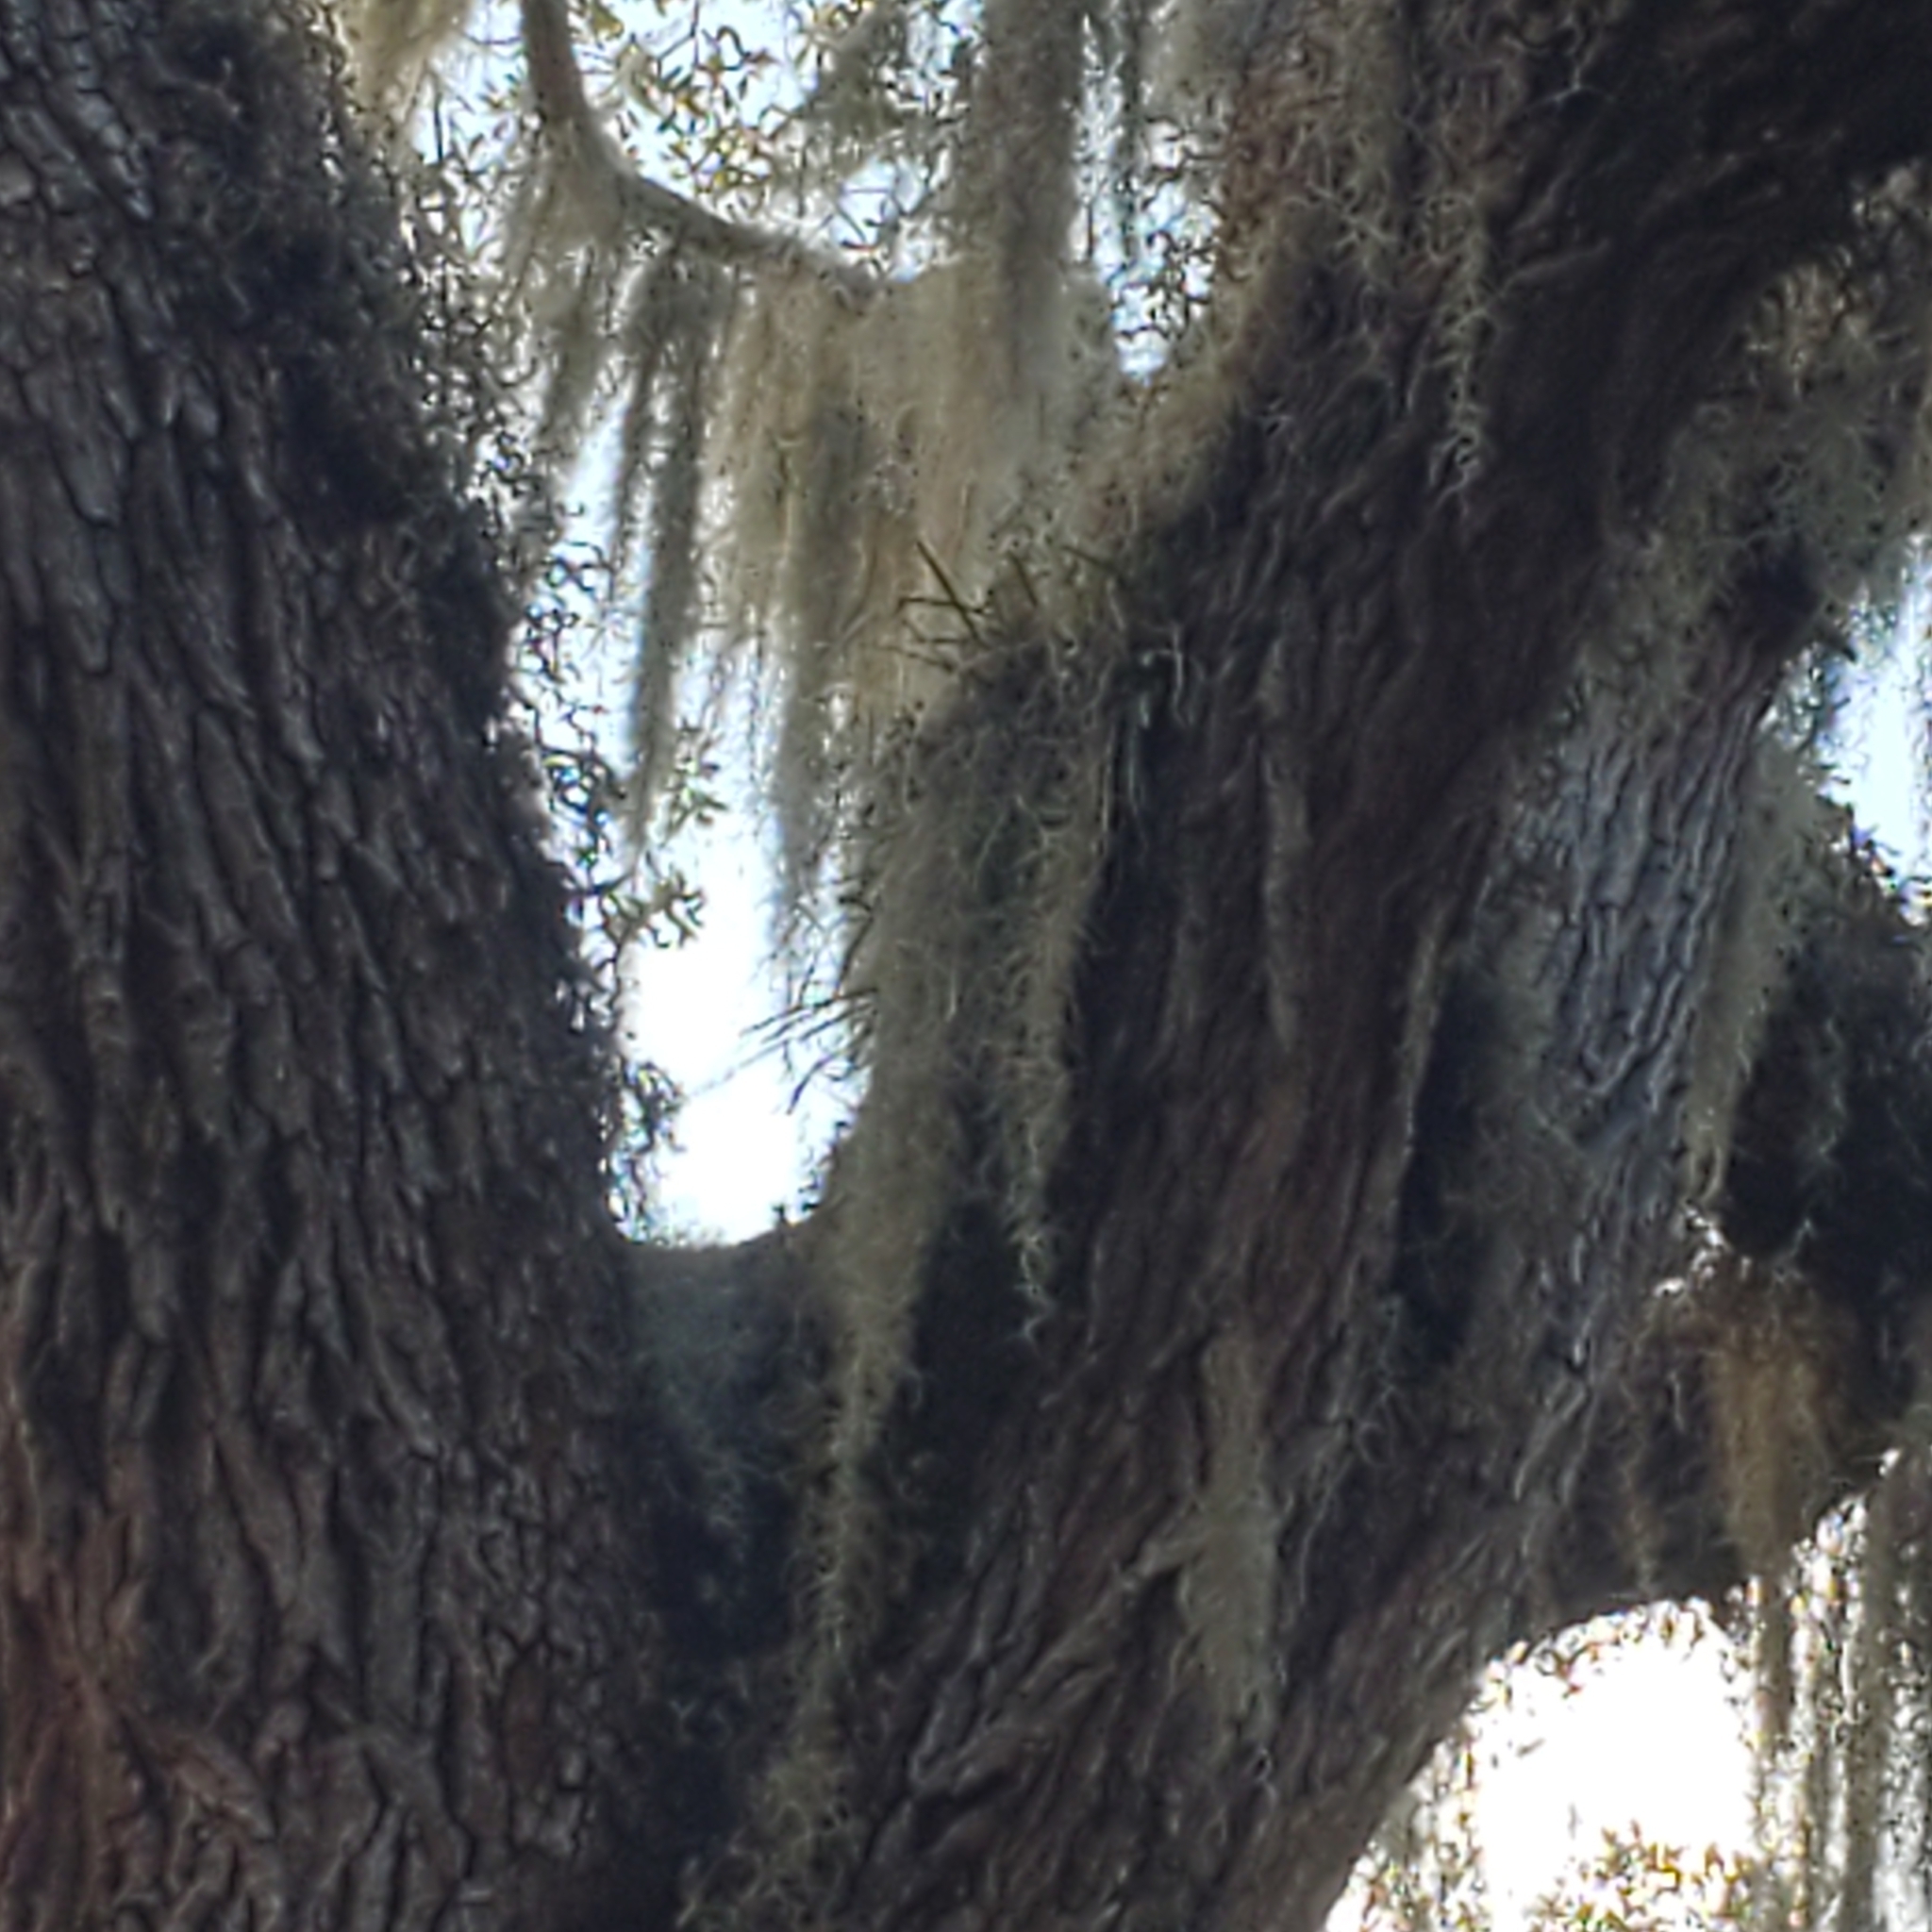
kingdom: Plantae
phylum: Tracheophyta
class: Liliopsida
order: Asparagales
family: Orchidaceae
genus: Encyclia
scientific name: Encyclia tampensis
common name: Florida butterfly orchid
